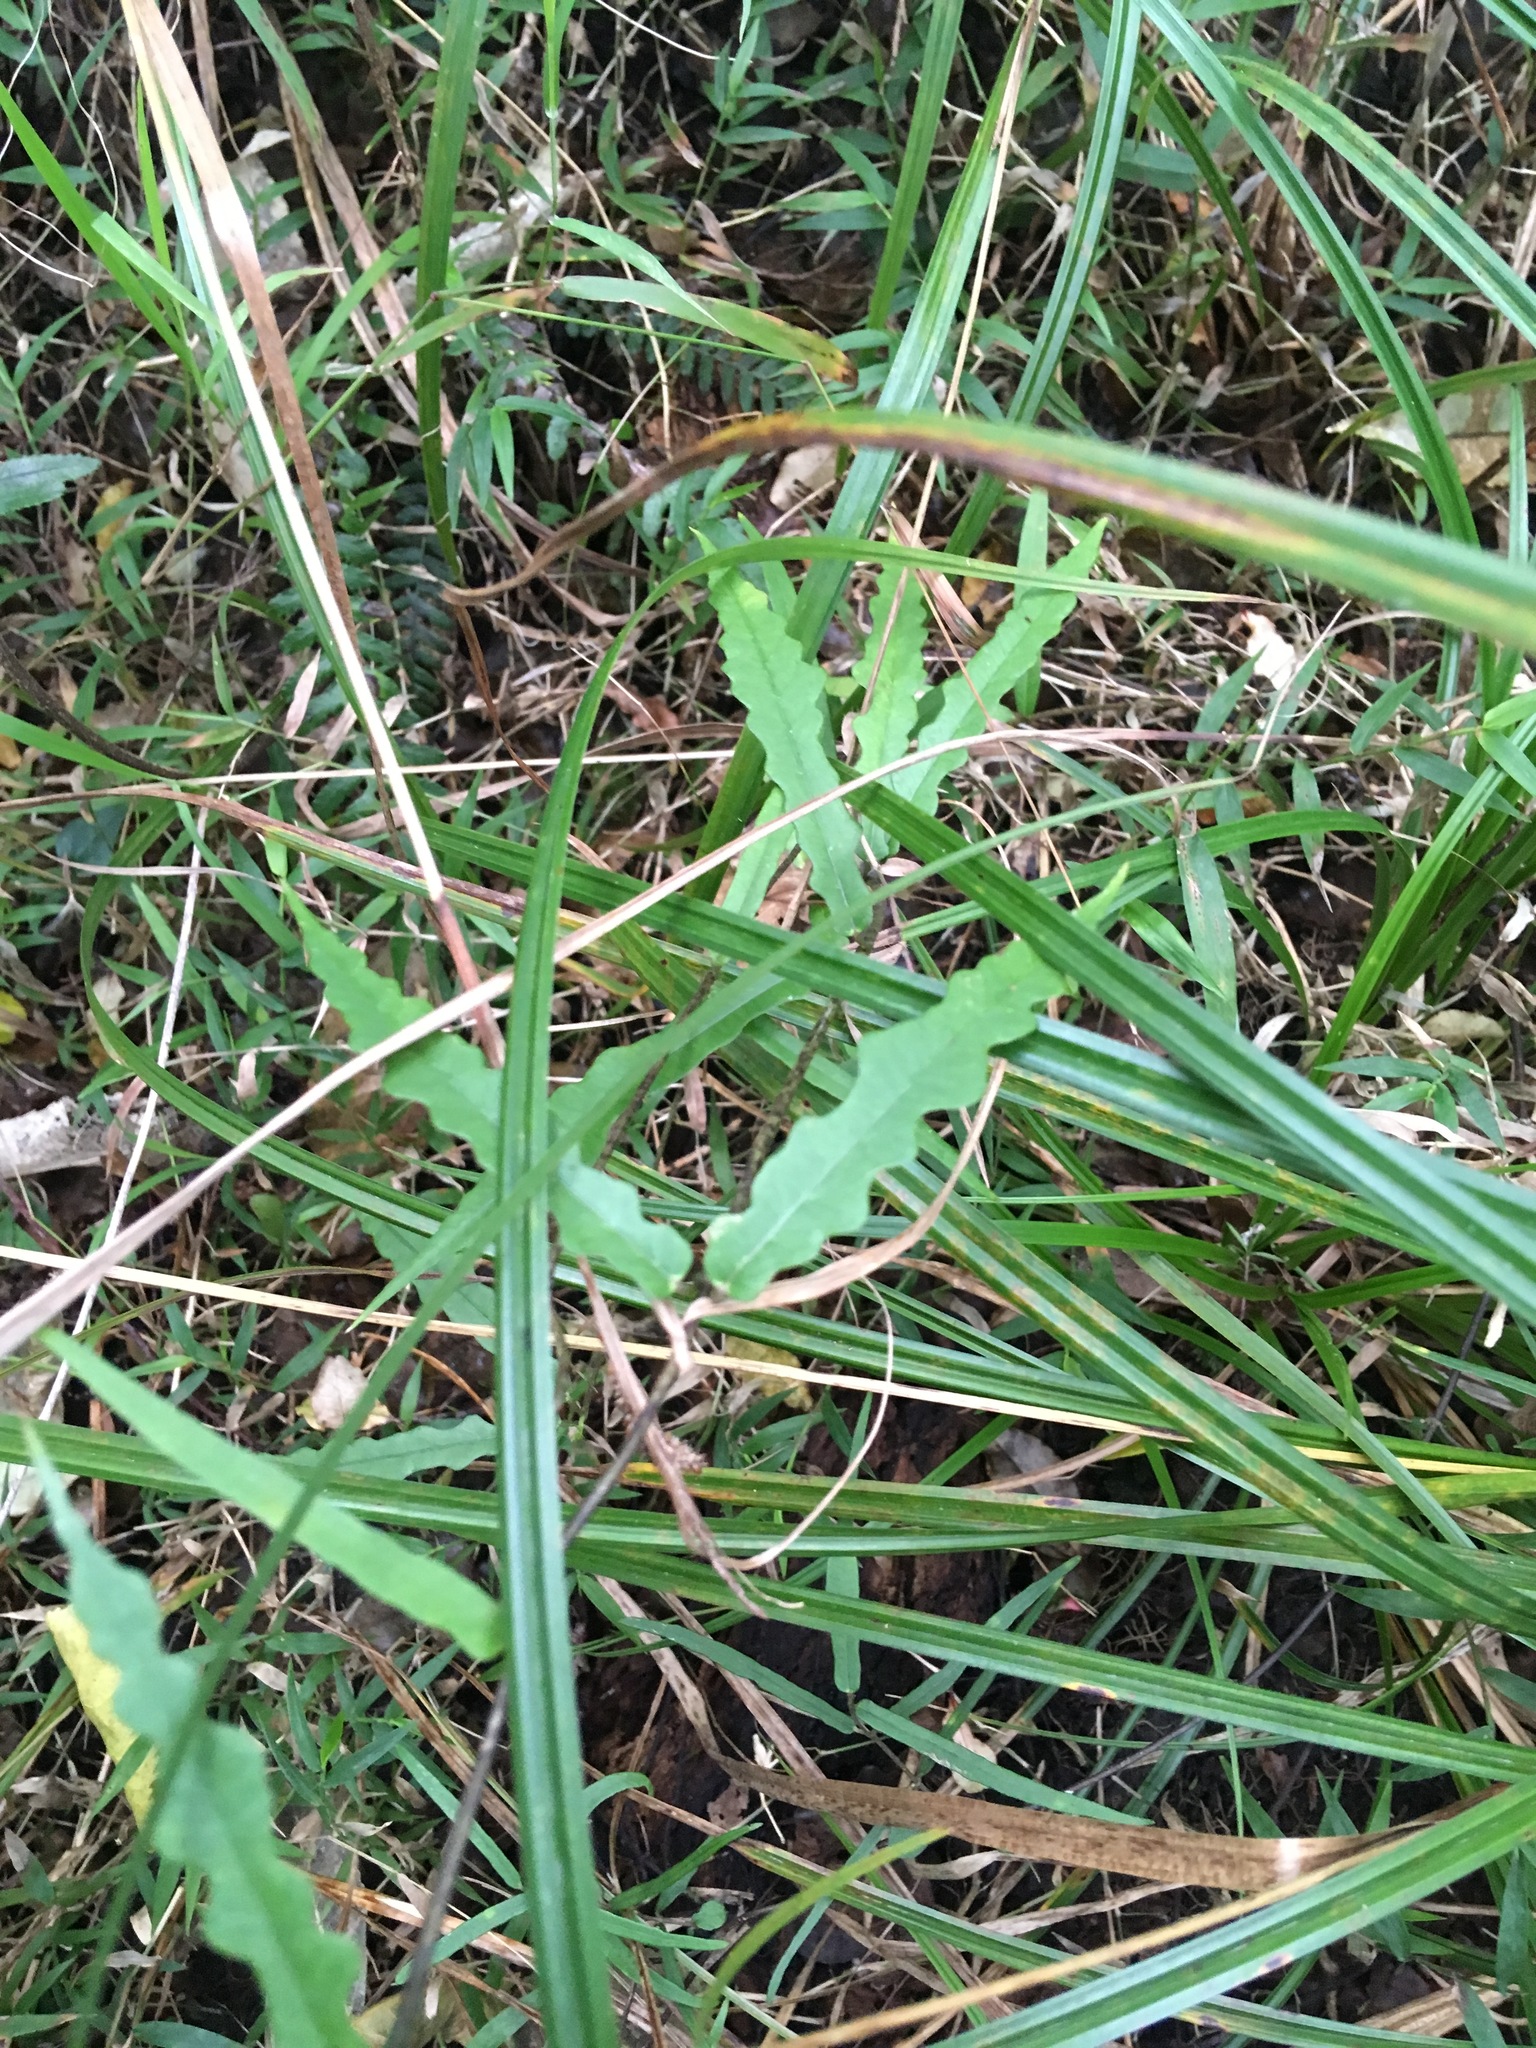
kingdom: Plantae
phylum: Tracheophyta
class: Magnoliopsida
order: Gentianales
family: Apocynaceae
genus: Parsonsia
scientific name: Parsonsia heterophylla
